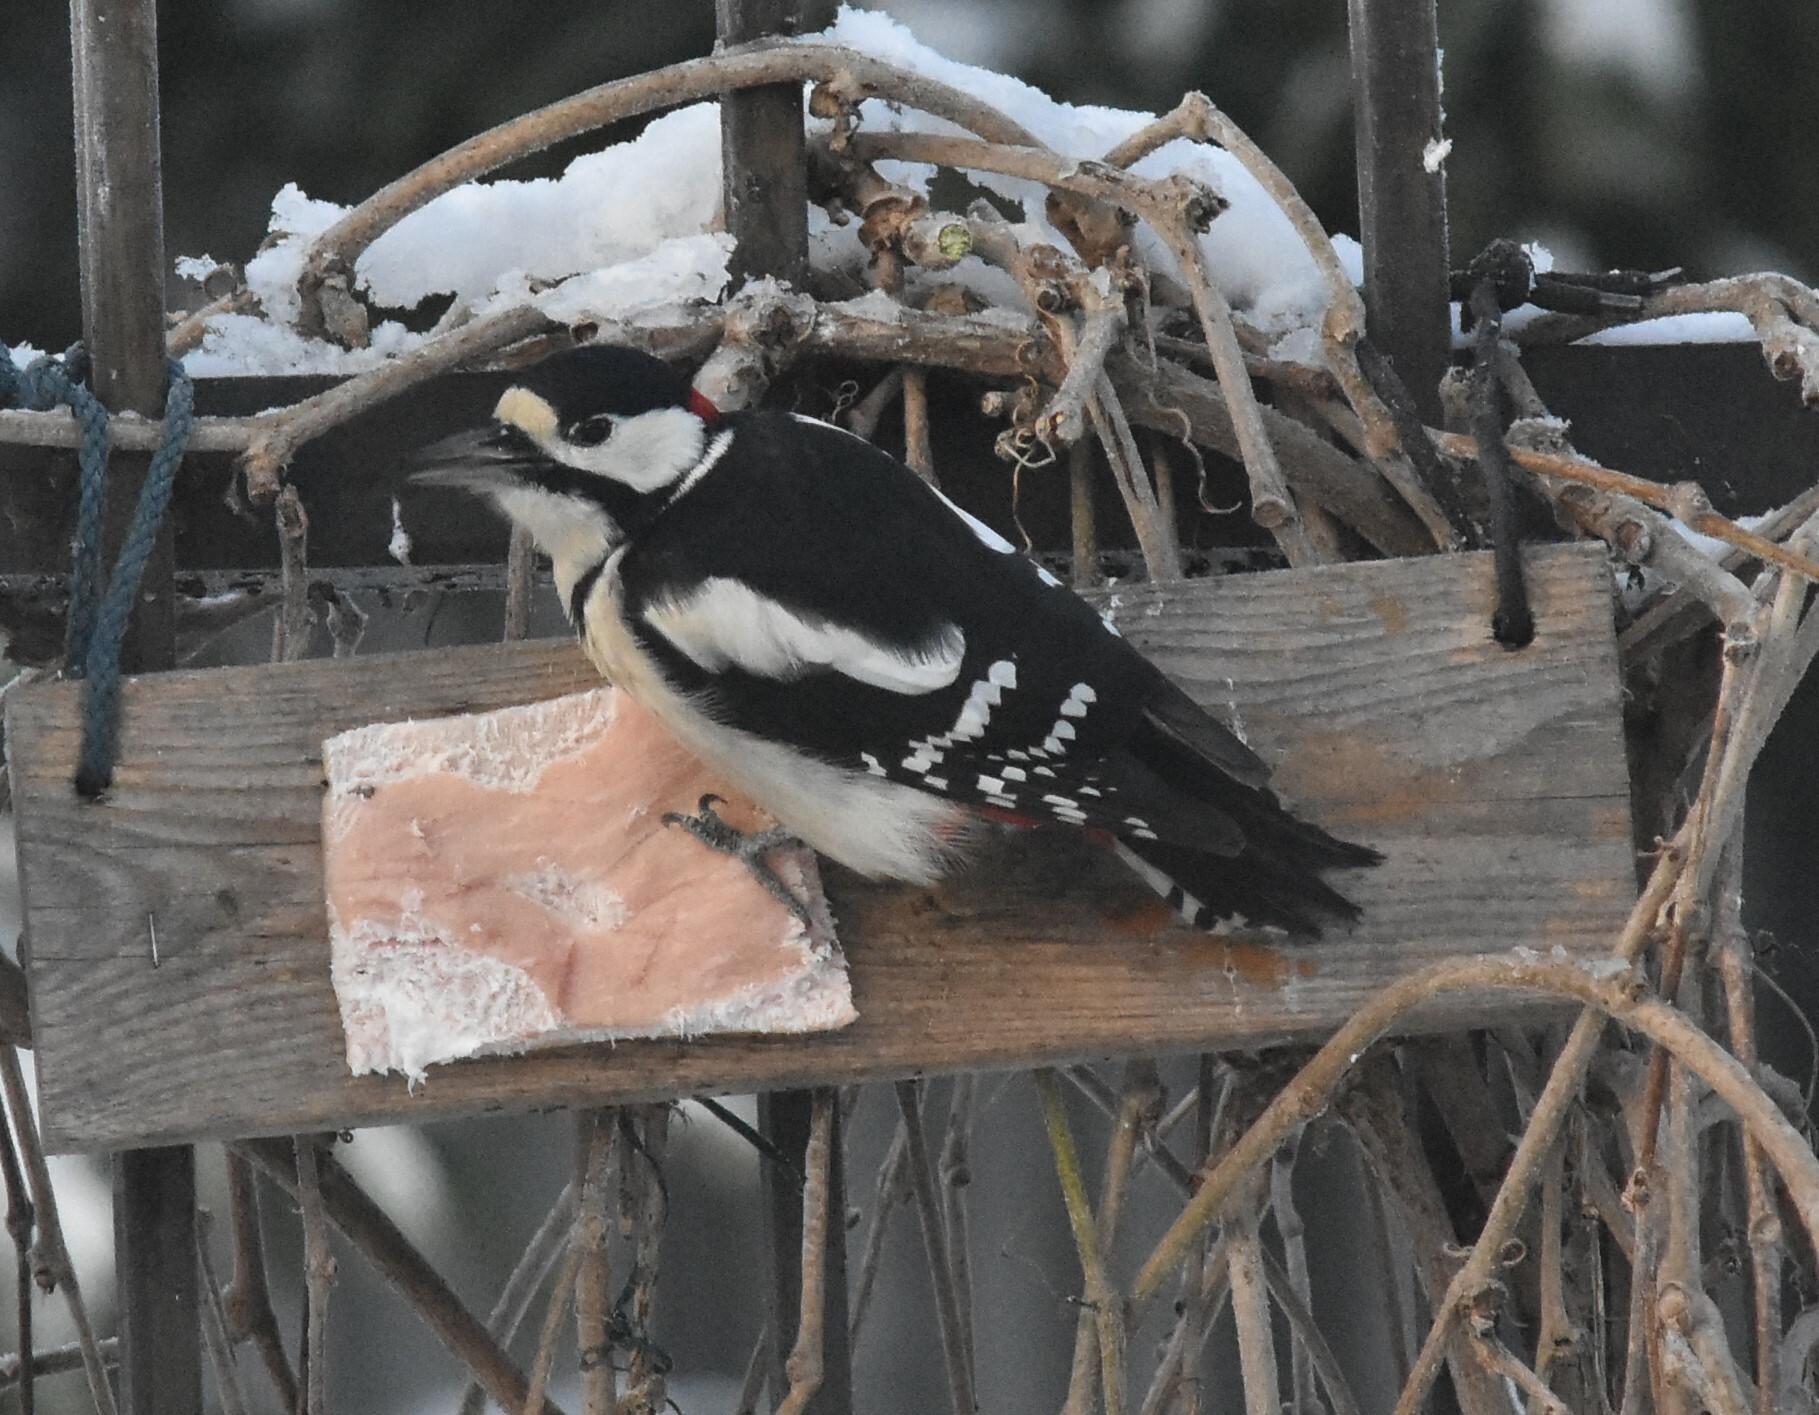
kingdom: Animalia
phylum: Chordata
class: Aves
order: Piciformes
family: Picidae
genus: Dendrocopos
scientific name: Dendrocopos major
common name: Great spotted woodpecker
